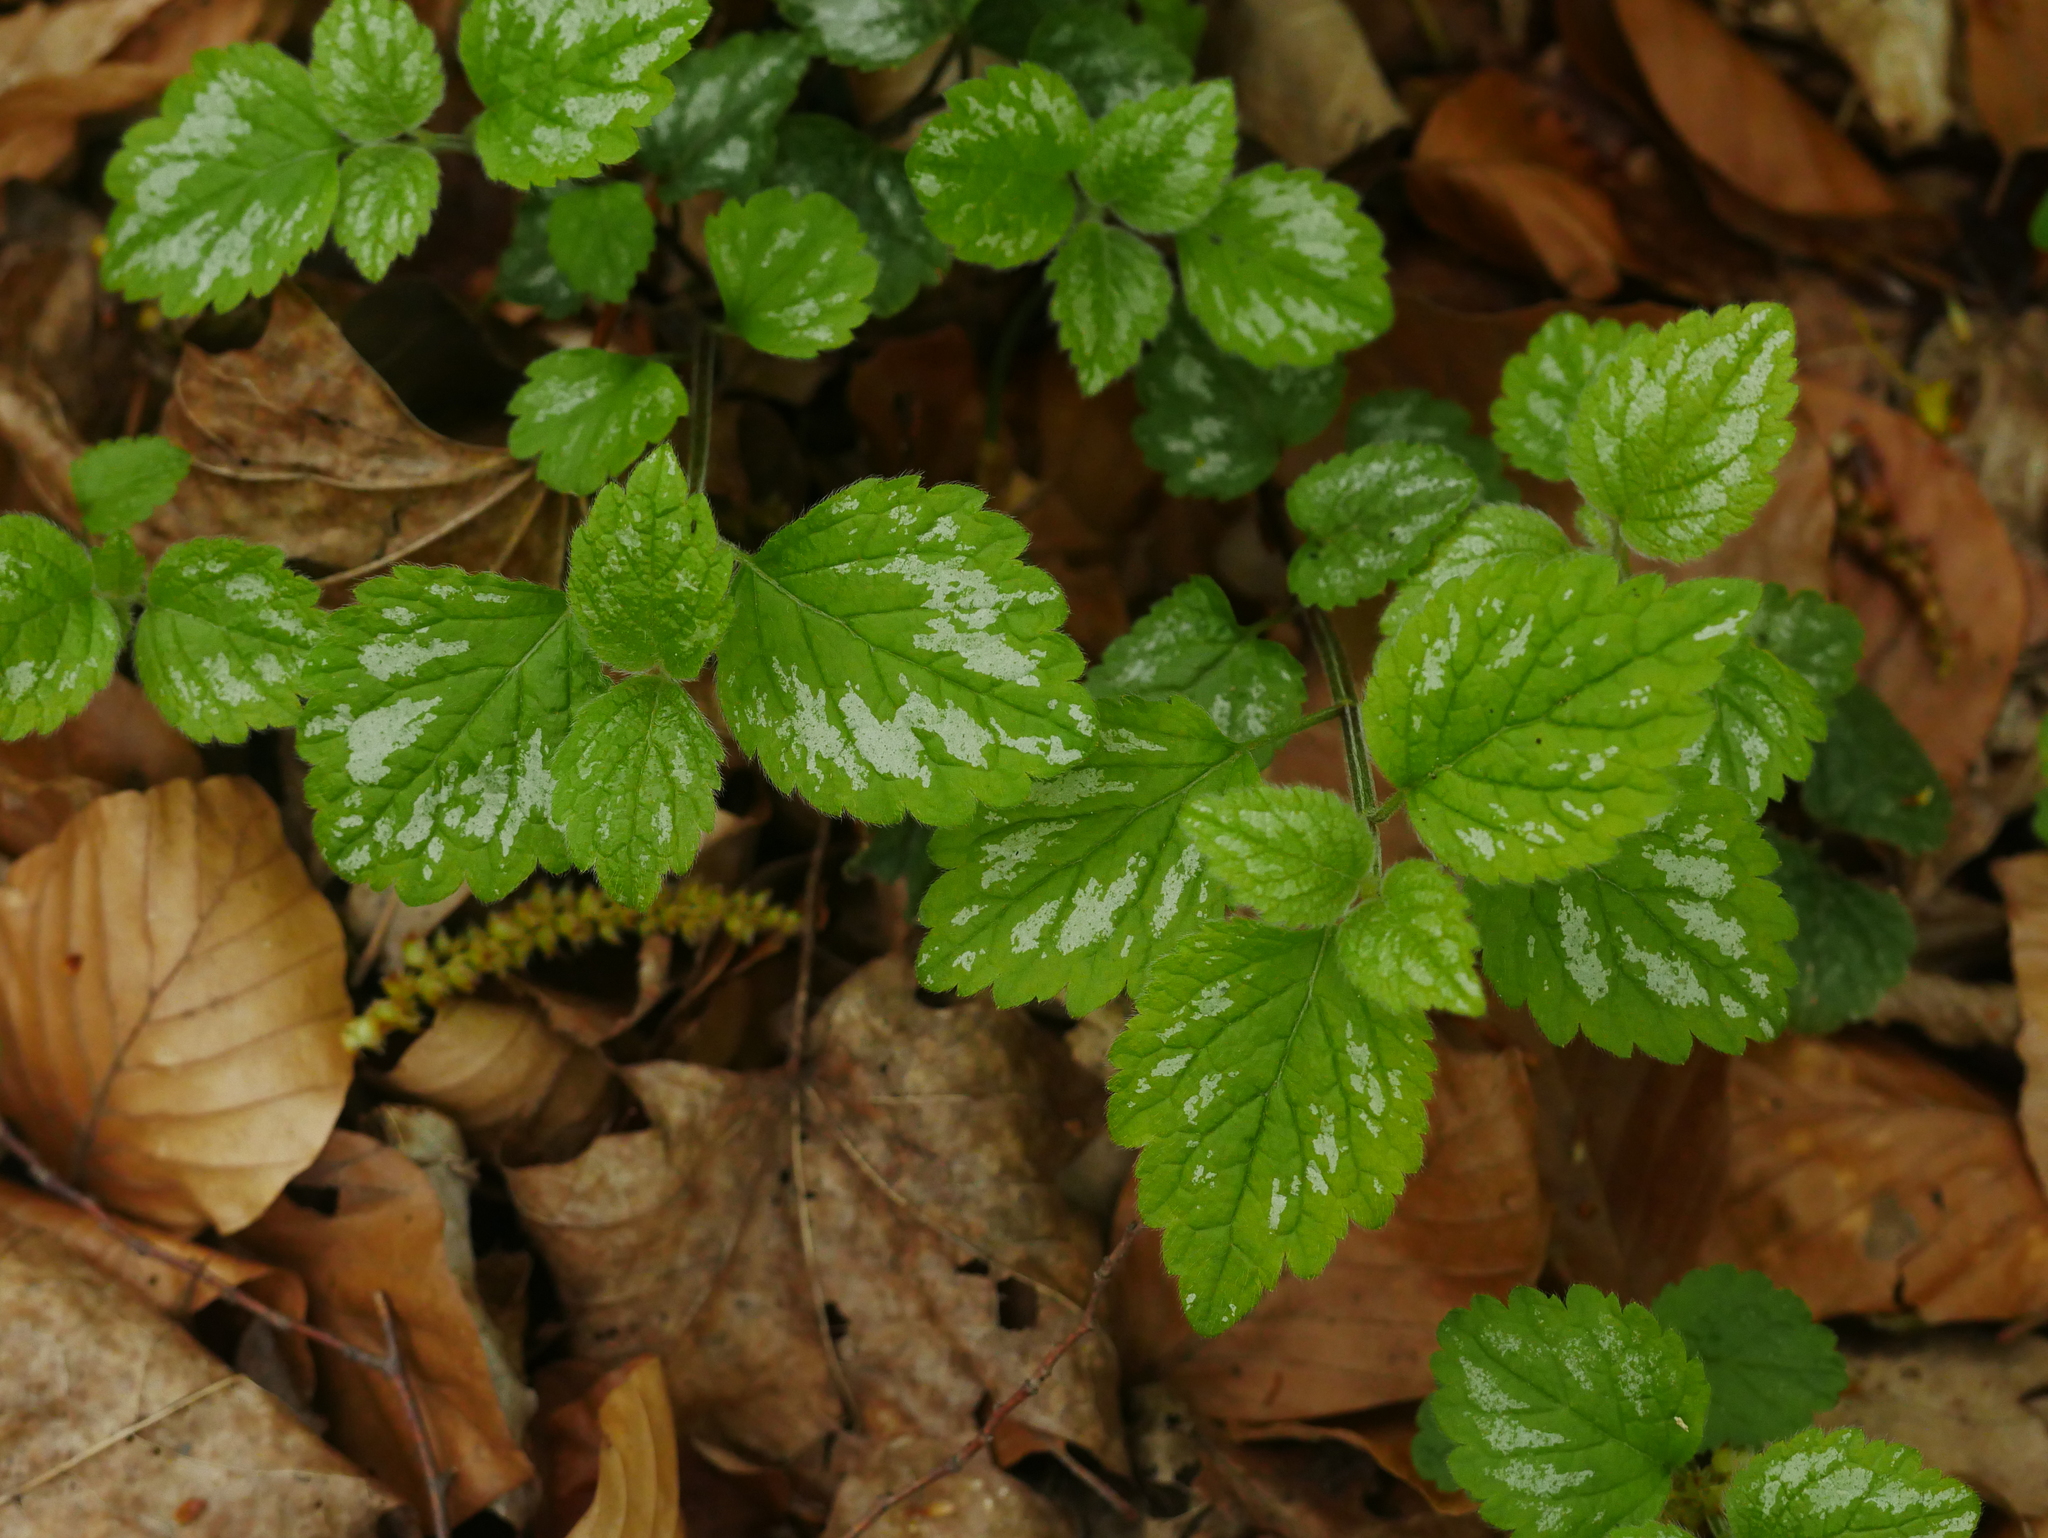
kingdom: Plantae
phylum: Tracheophyta
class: Magnoliopsida
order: Lamiales
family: Lamiaceae
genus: Lamium
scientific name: Lamium galeobdolon
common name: Yellow archangel
